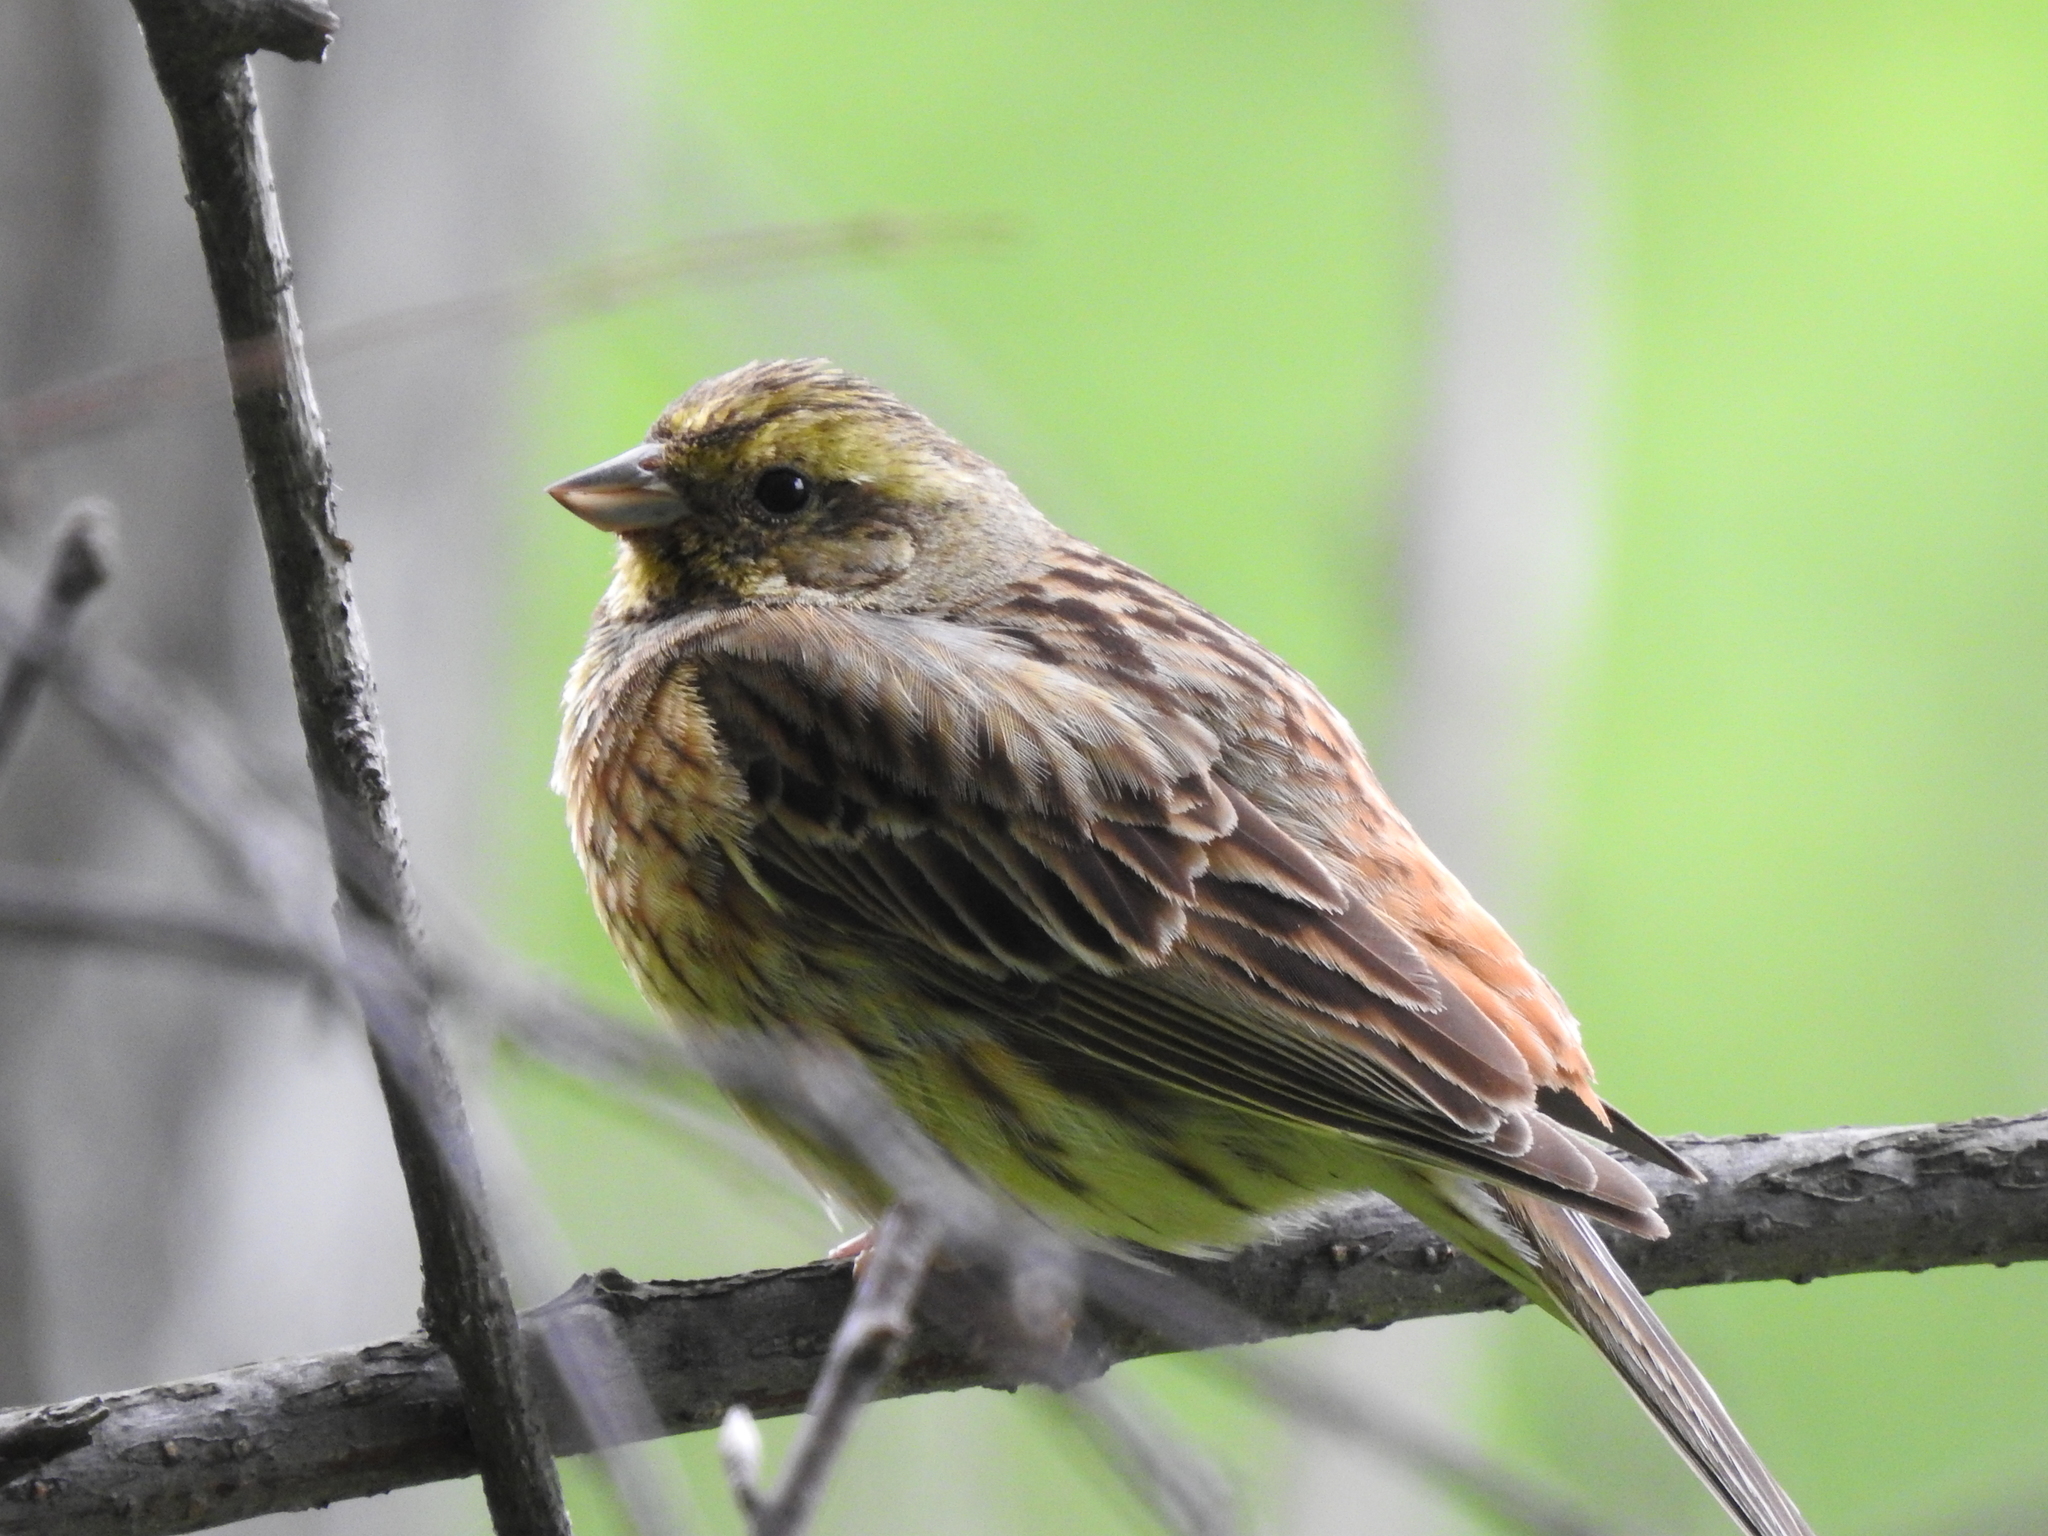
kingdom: Animalia
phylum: Chordata
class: Aves
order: Passeriformes
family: Emberizidae
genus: Emberiza
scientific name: Emberiza citrinella
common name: Yellowhammer
